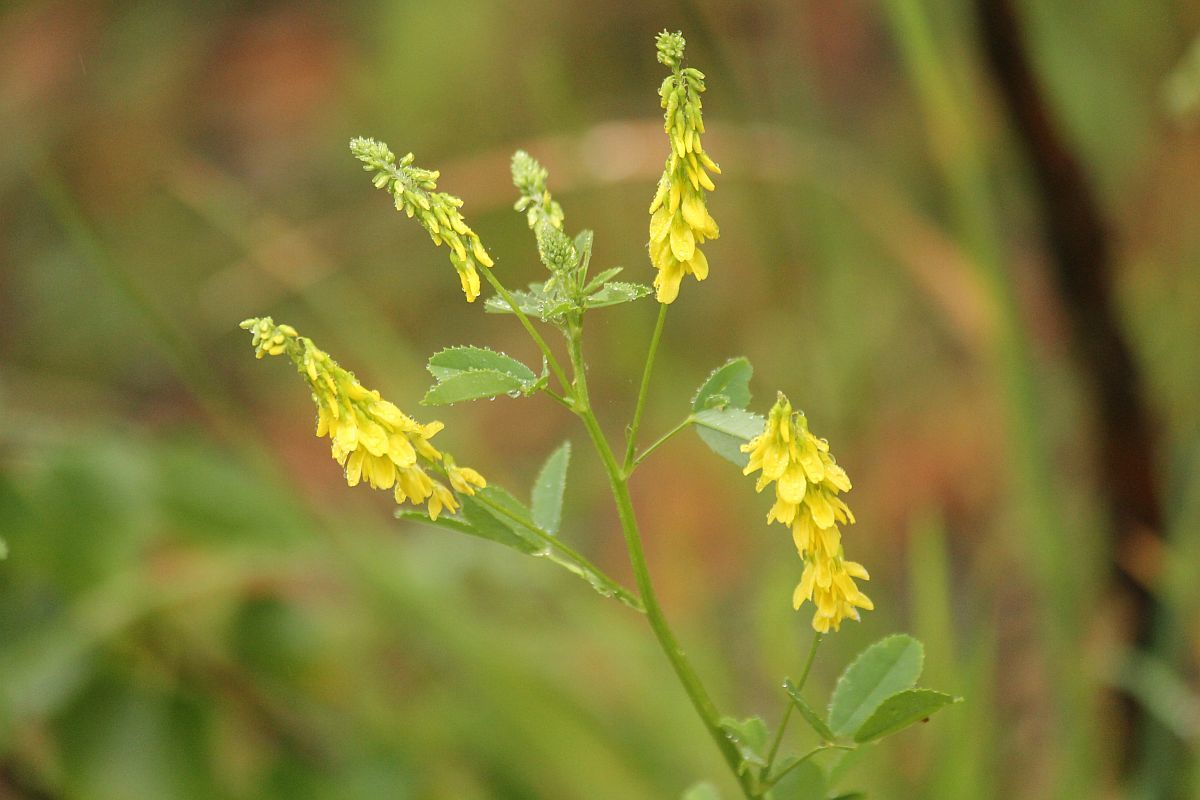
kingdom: Plantae
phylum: Tracheophyta
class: Magnoliopsida
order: Fabales
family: Fabaceae
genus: Melilotus
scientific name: Melilotus officinalis
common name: Sweetclover
